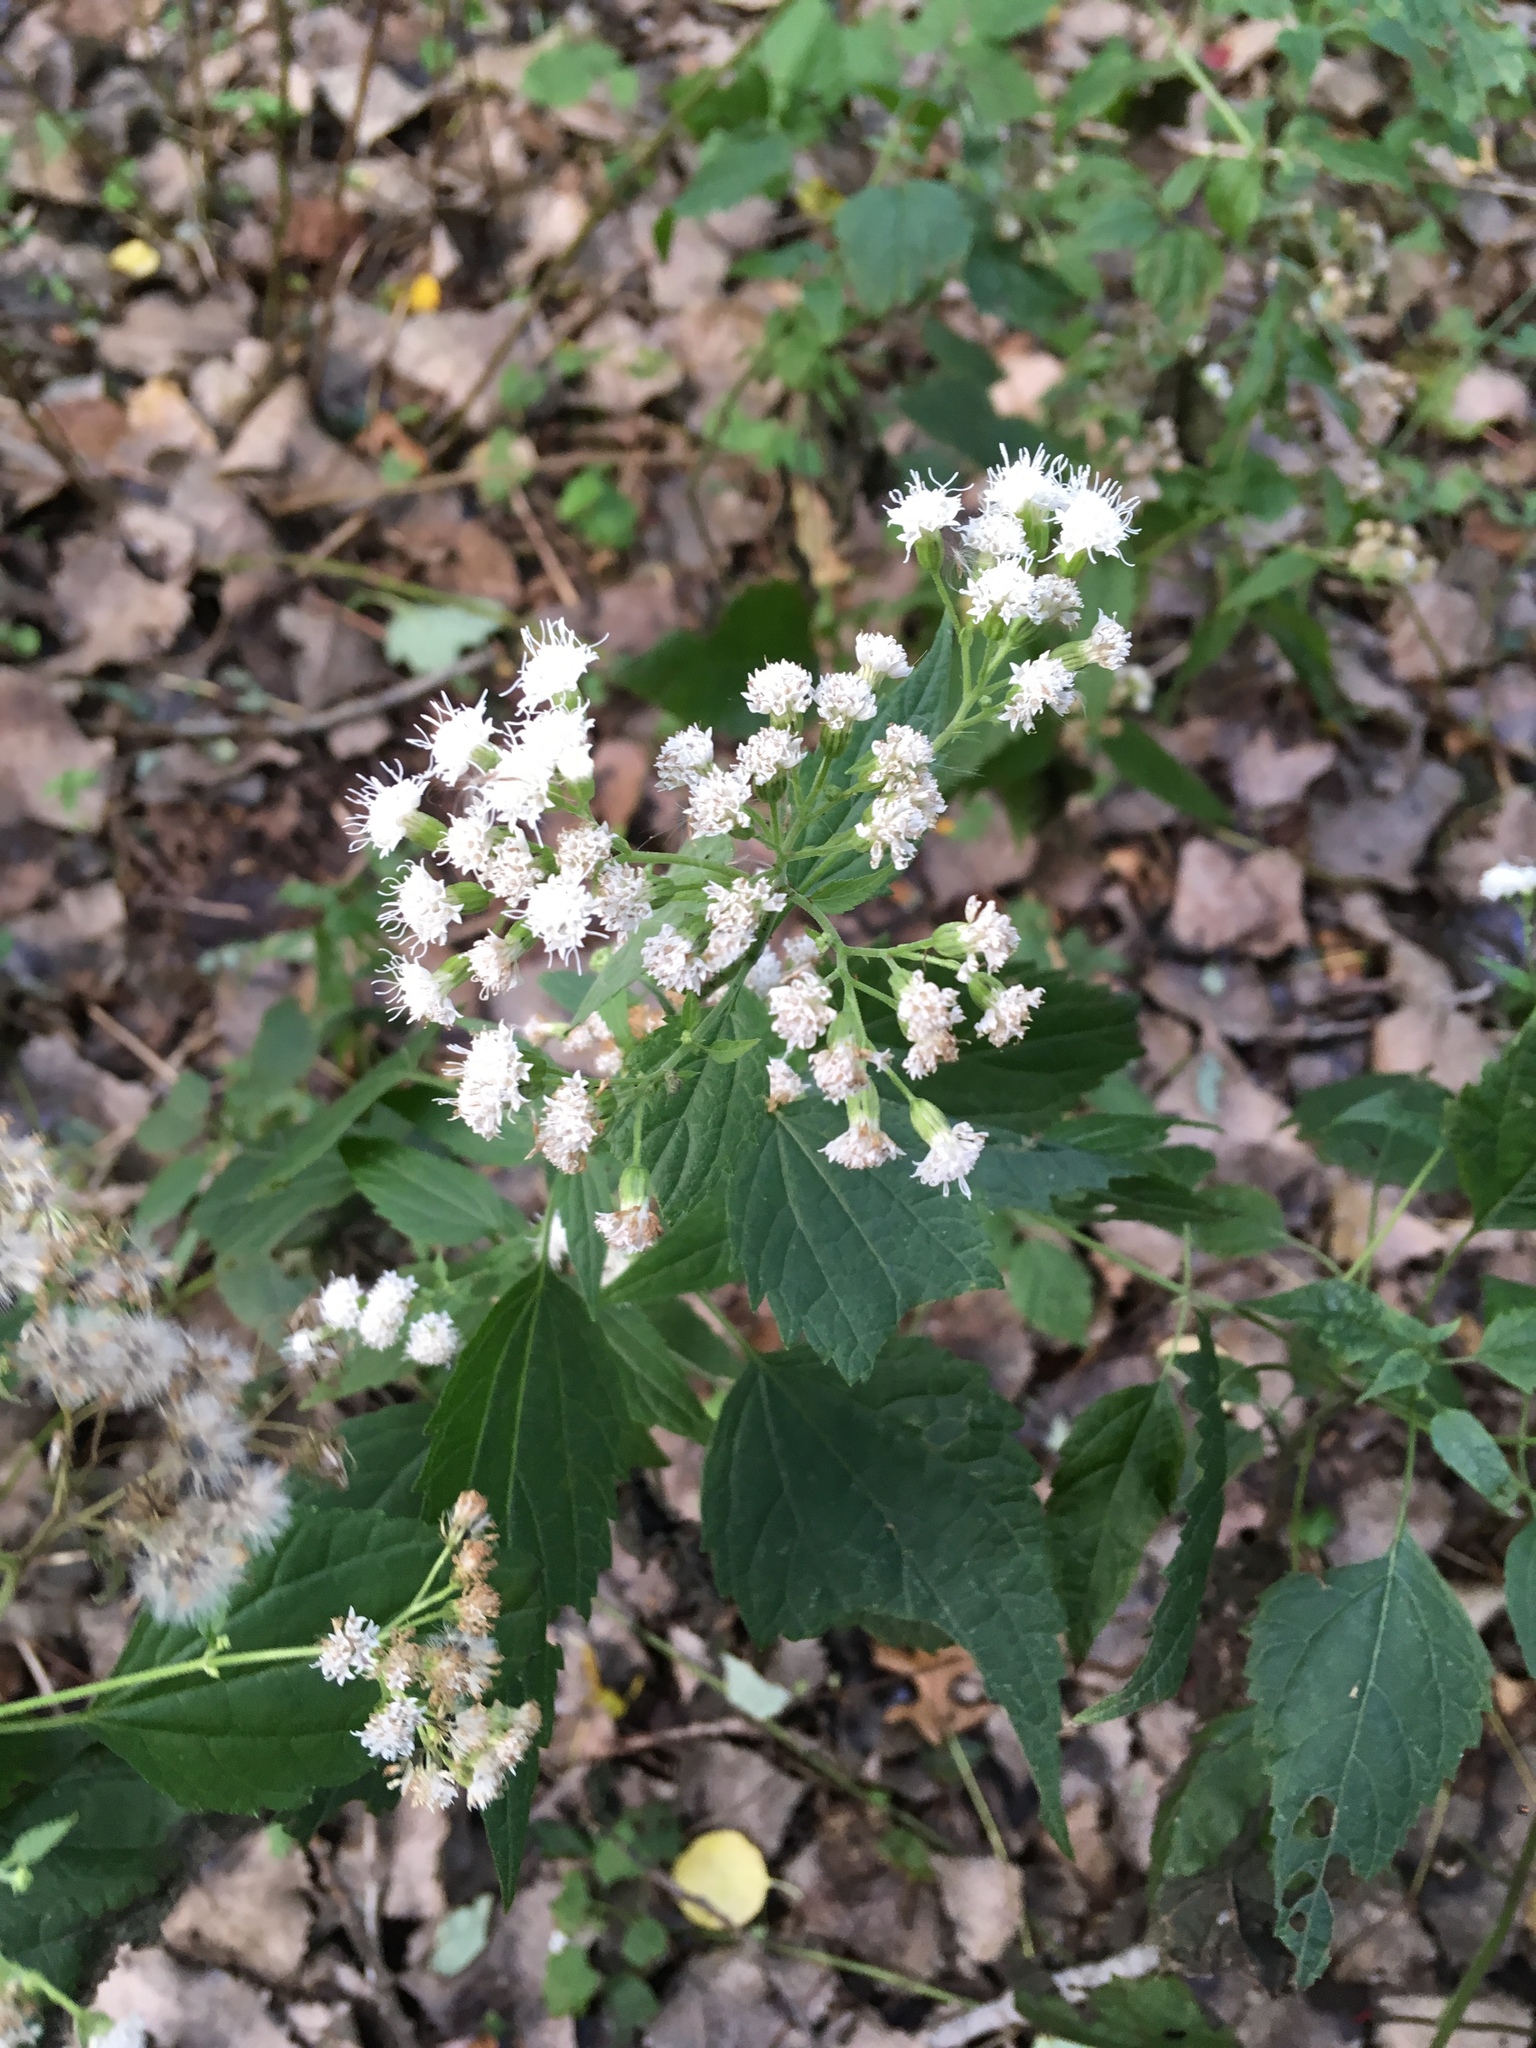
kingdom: Plantae
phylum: Tracheophyta
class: Magnoliopsida
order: Asterales
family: Asteraceae
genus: Ageratina
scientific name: Ageratina altissima
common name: White snakeroot
